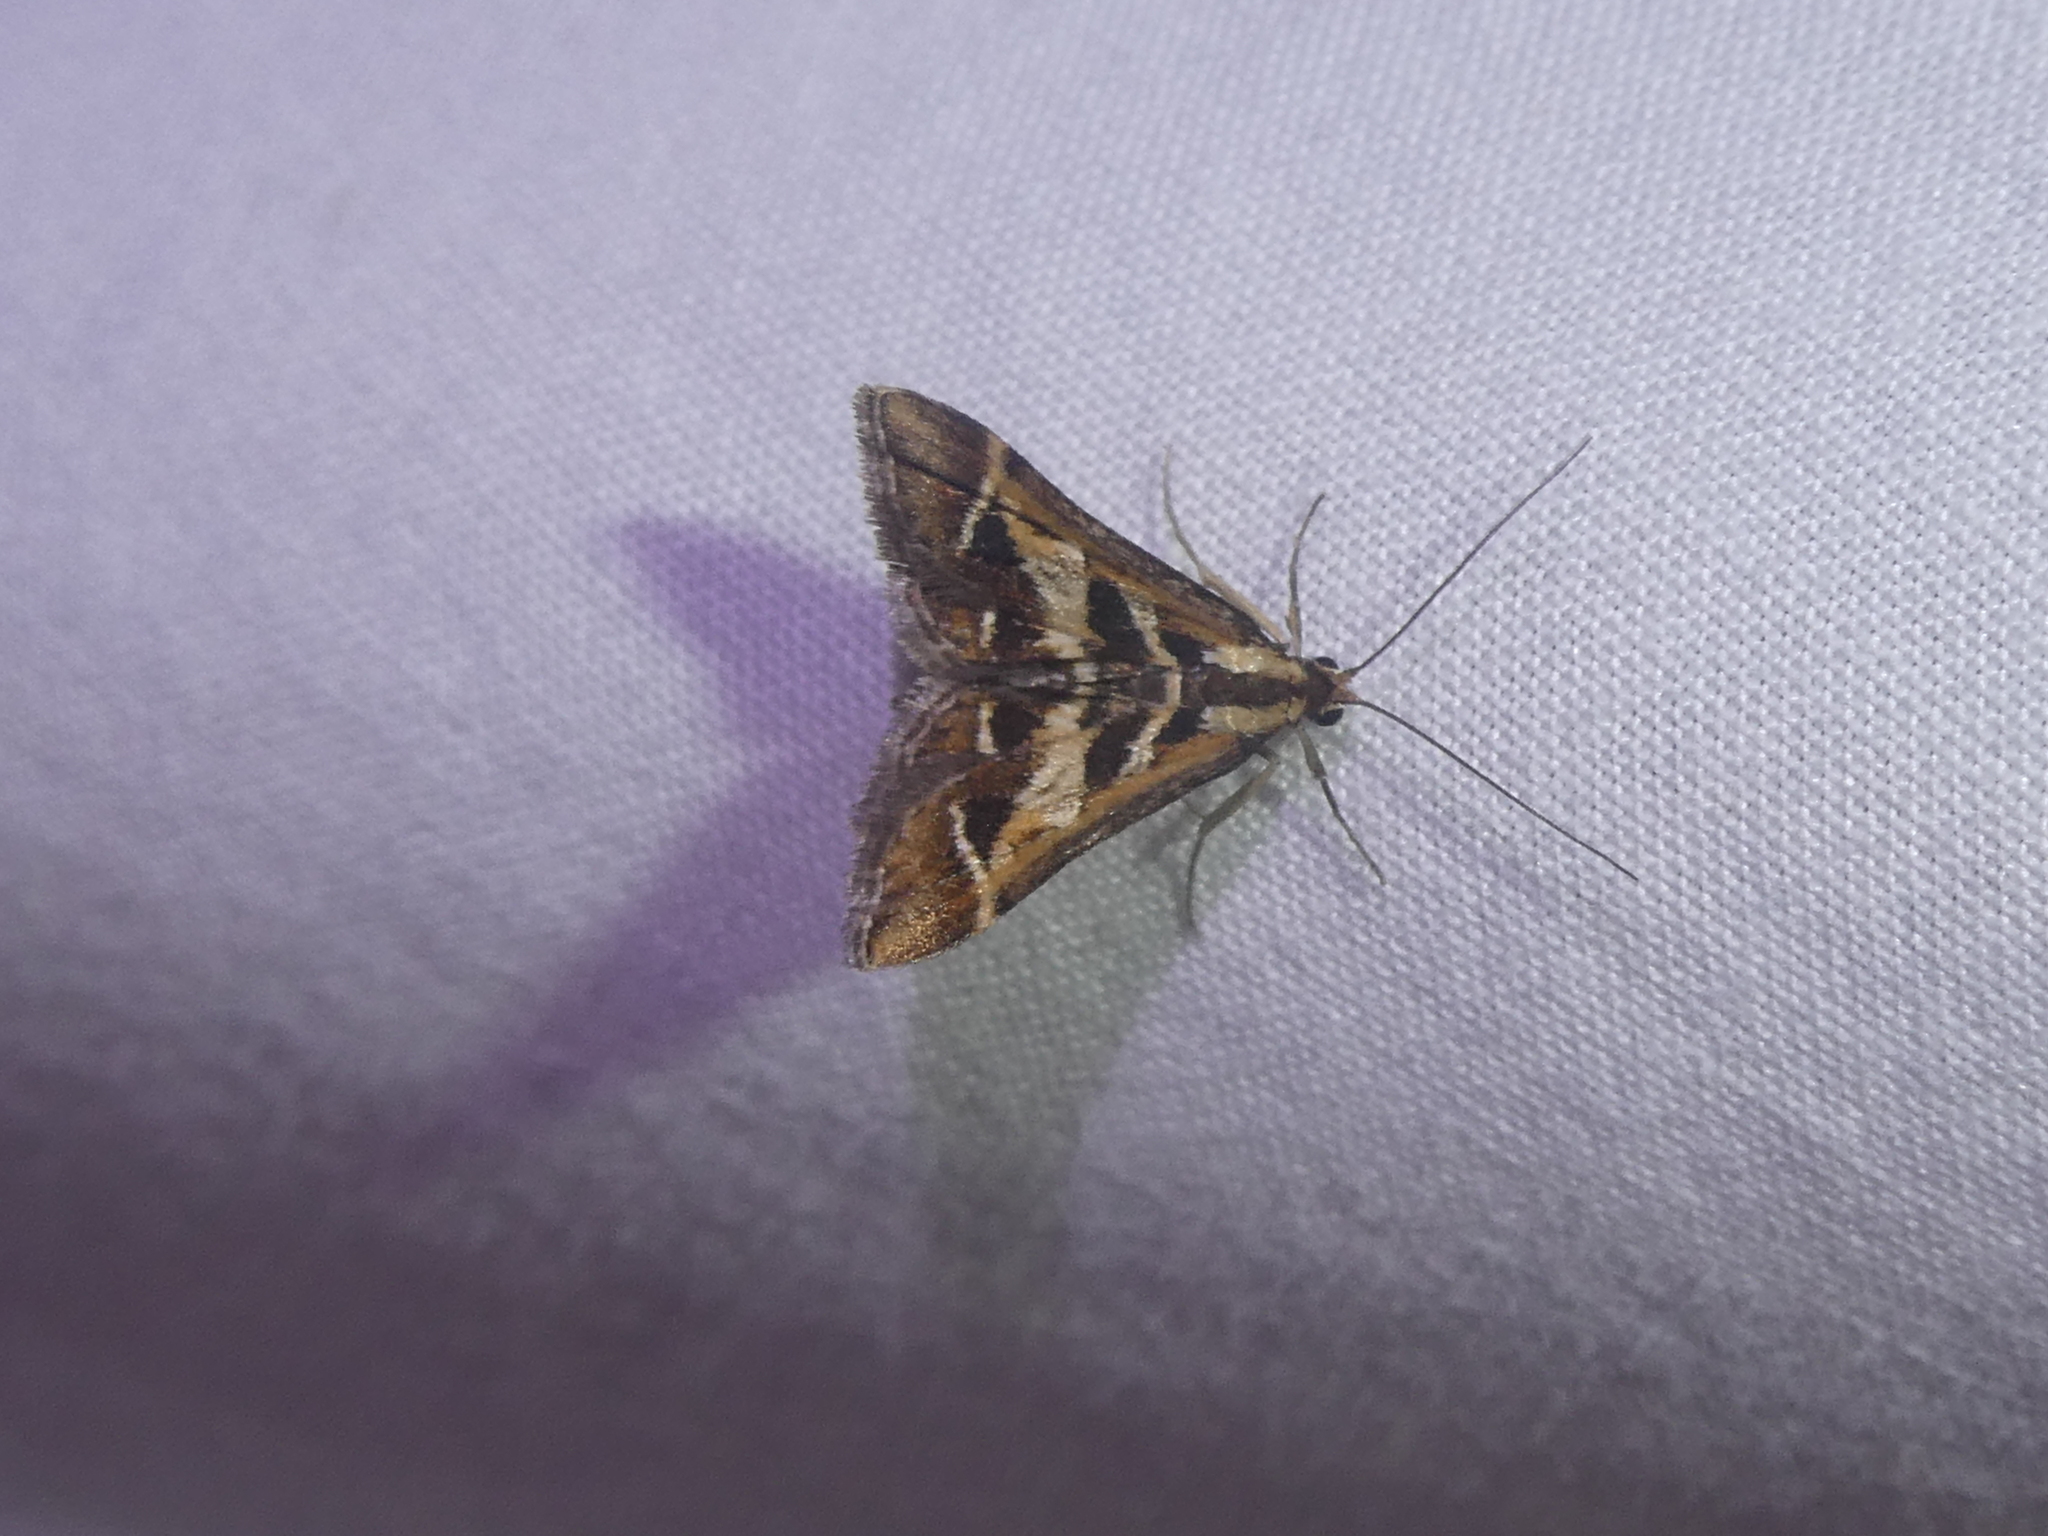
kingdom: Animalia
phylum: Arthropoda
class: Insecta
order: Lepidoptera
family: Crambidae
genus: Diasemia
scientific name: Diasemia grammalis
